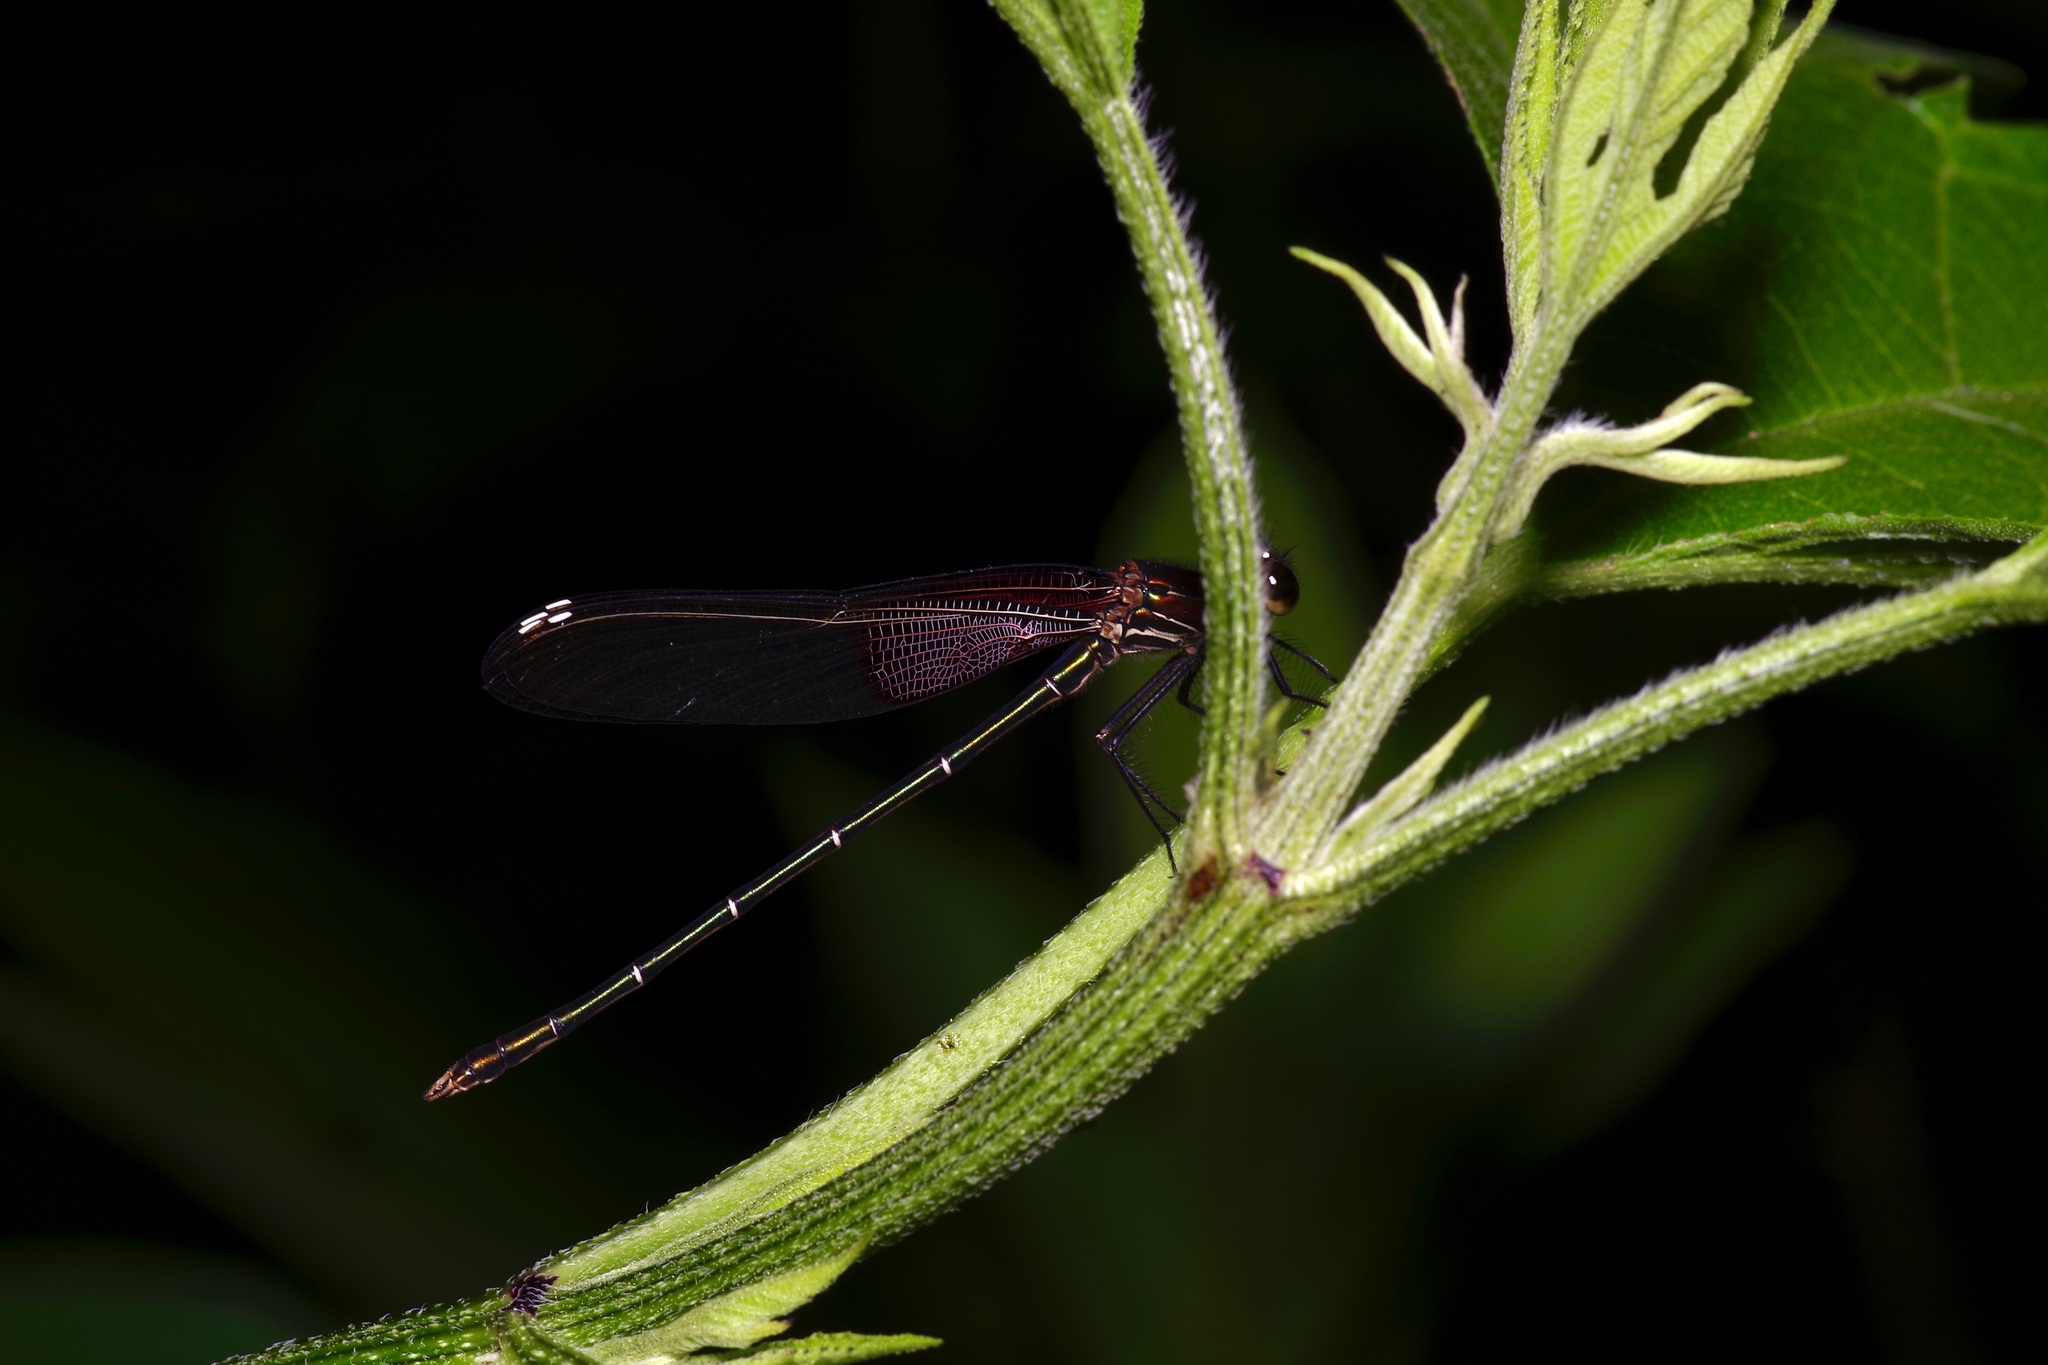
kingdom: Animalia
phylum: Arthropoda
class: Insecta
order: Odonata
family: Calopterygidae
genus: Hetaerina
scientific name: Hetaerina americana
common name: American rubyspot
